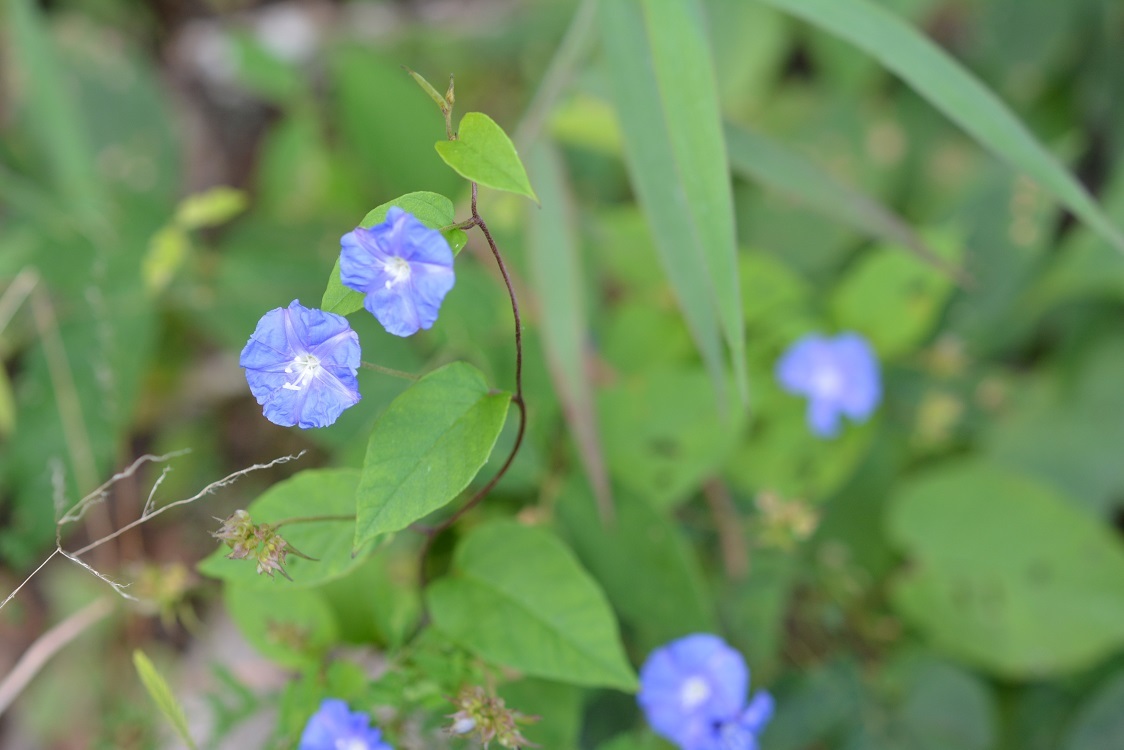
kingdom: Plantae
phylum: Tracheophyta
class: Magnoliopsida
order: Solanales
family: Convolvulaceae
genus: Jacquemontia
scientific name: Jacquemontia pentanthos
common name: Skyblue clustervine
